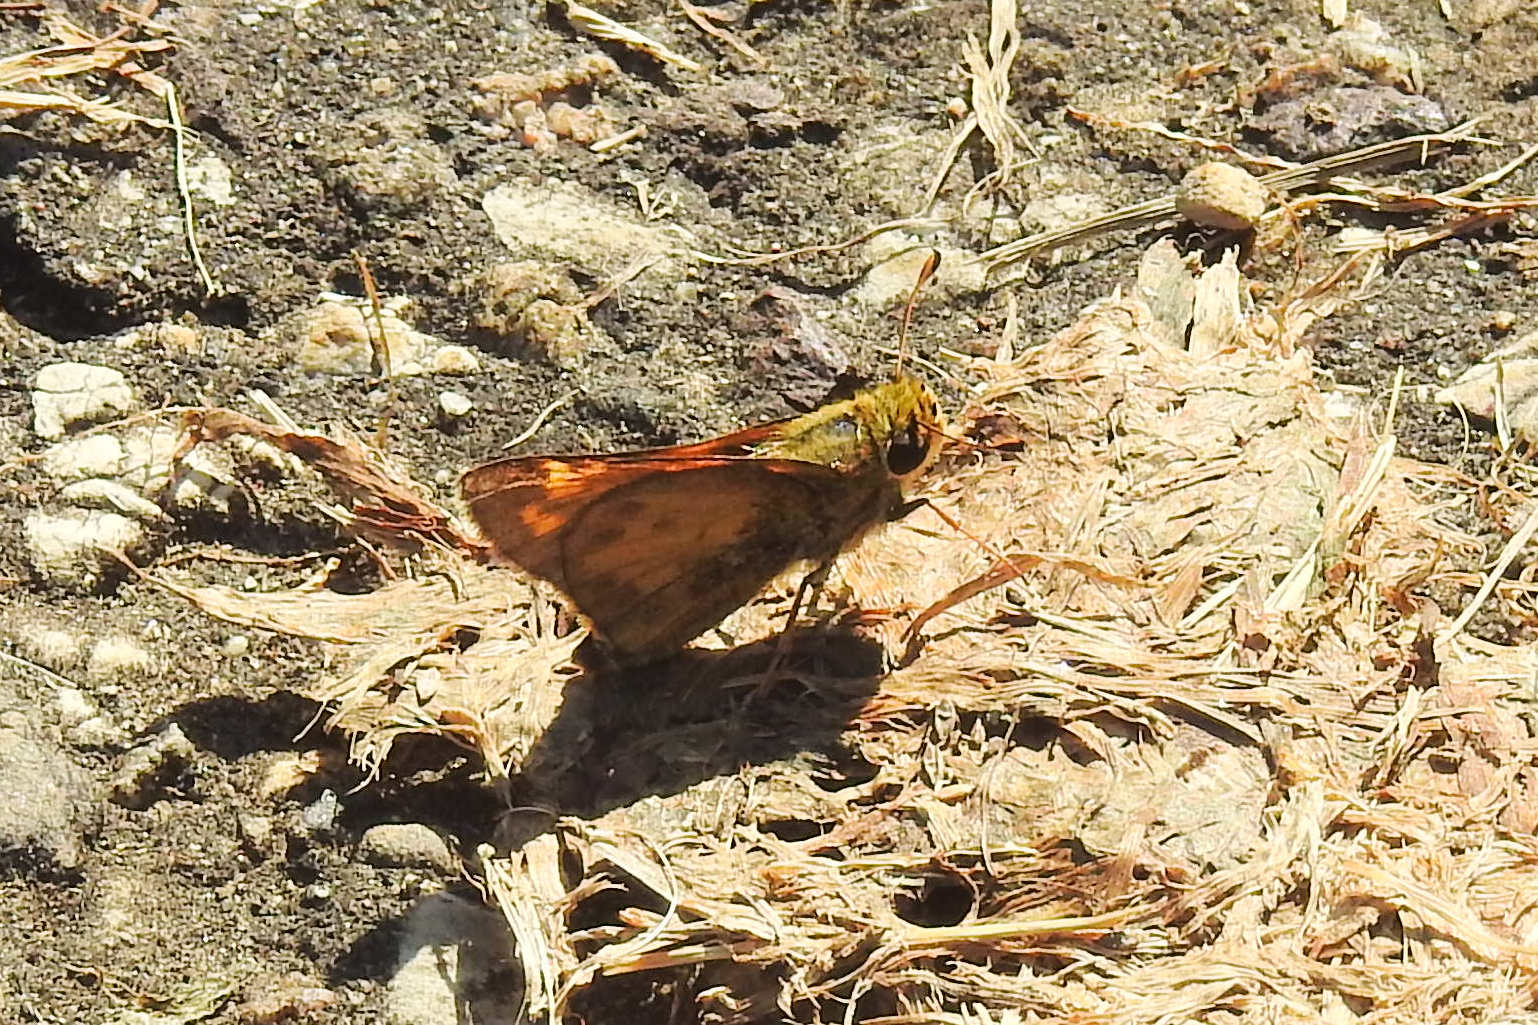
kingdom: Animalia
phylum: Arthropoda
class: Insecta
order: Lepidoptera
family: Hesperiidae
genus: Atalopedes
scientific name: Atalopedes
